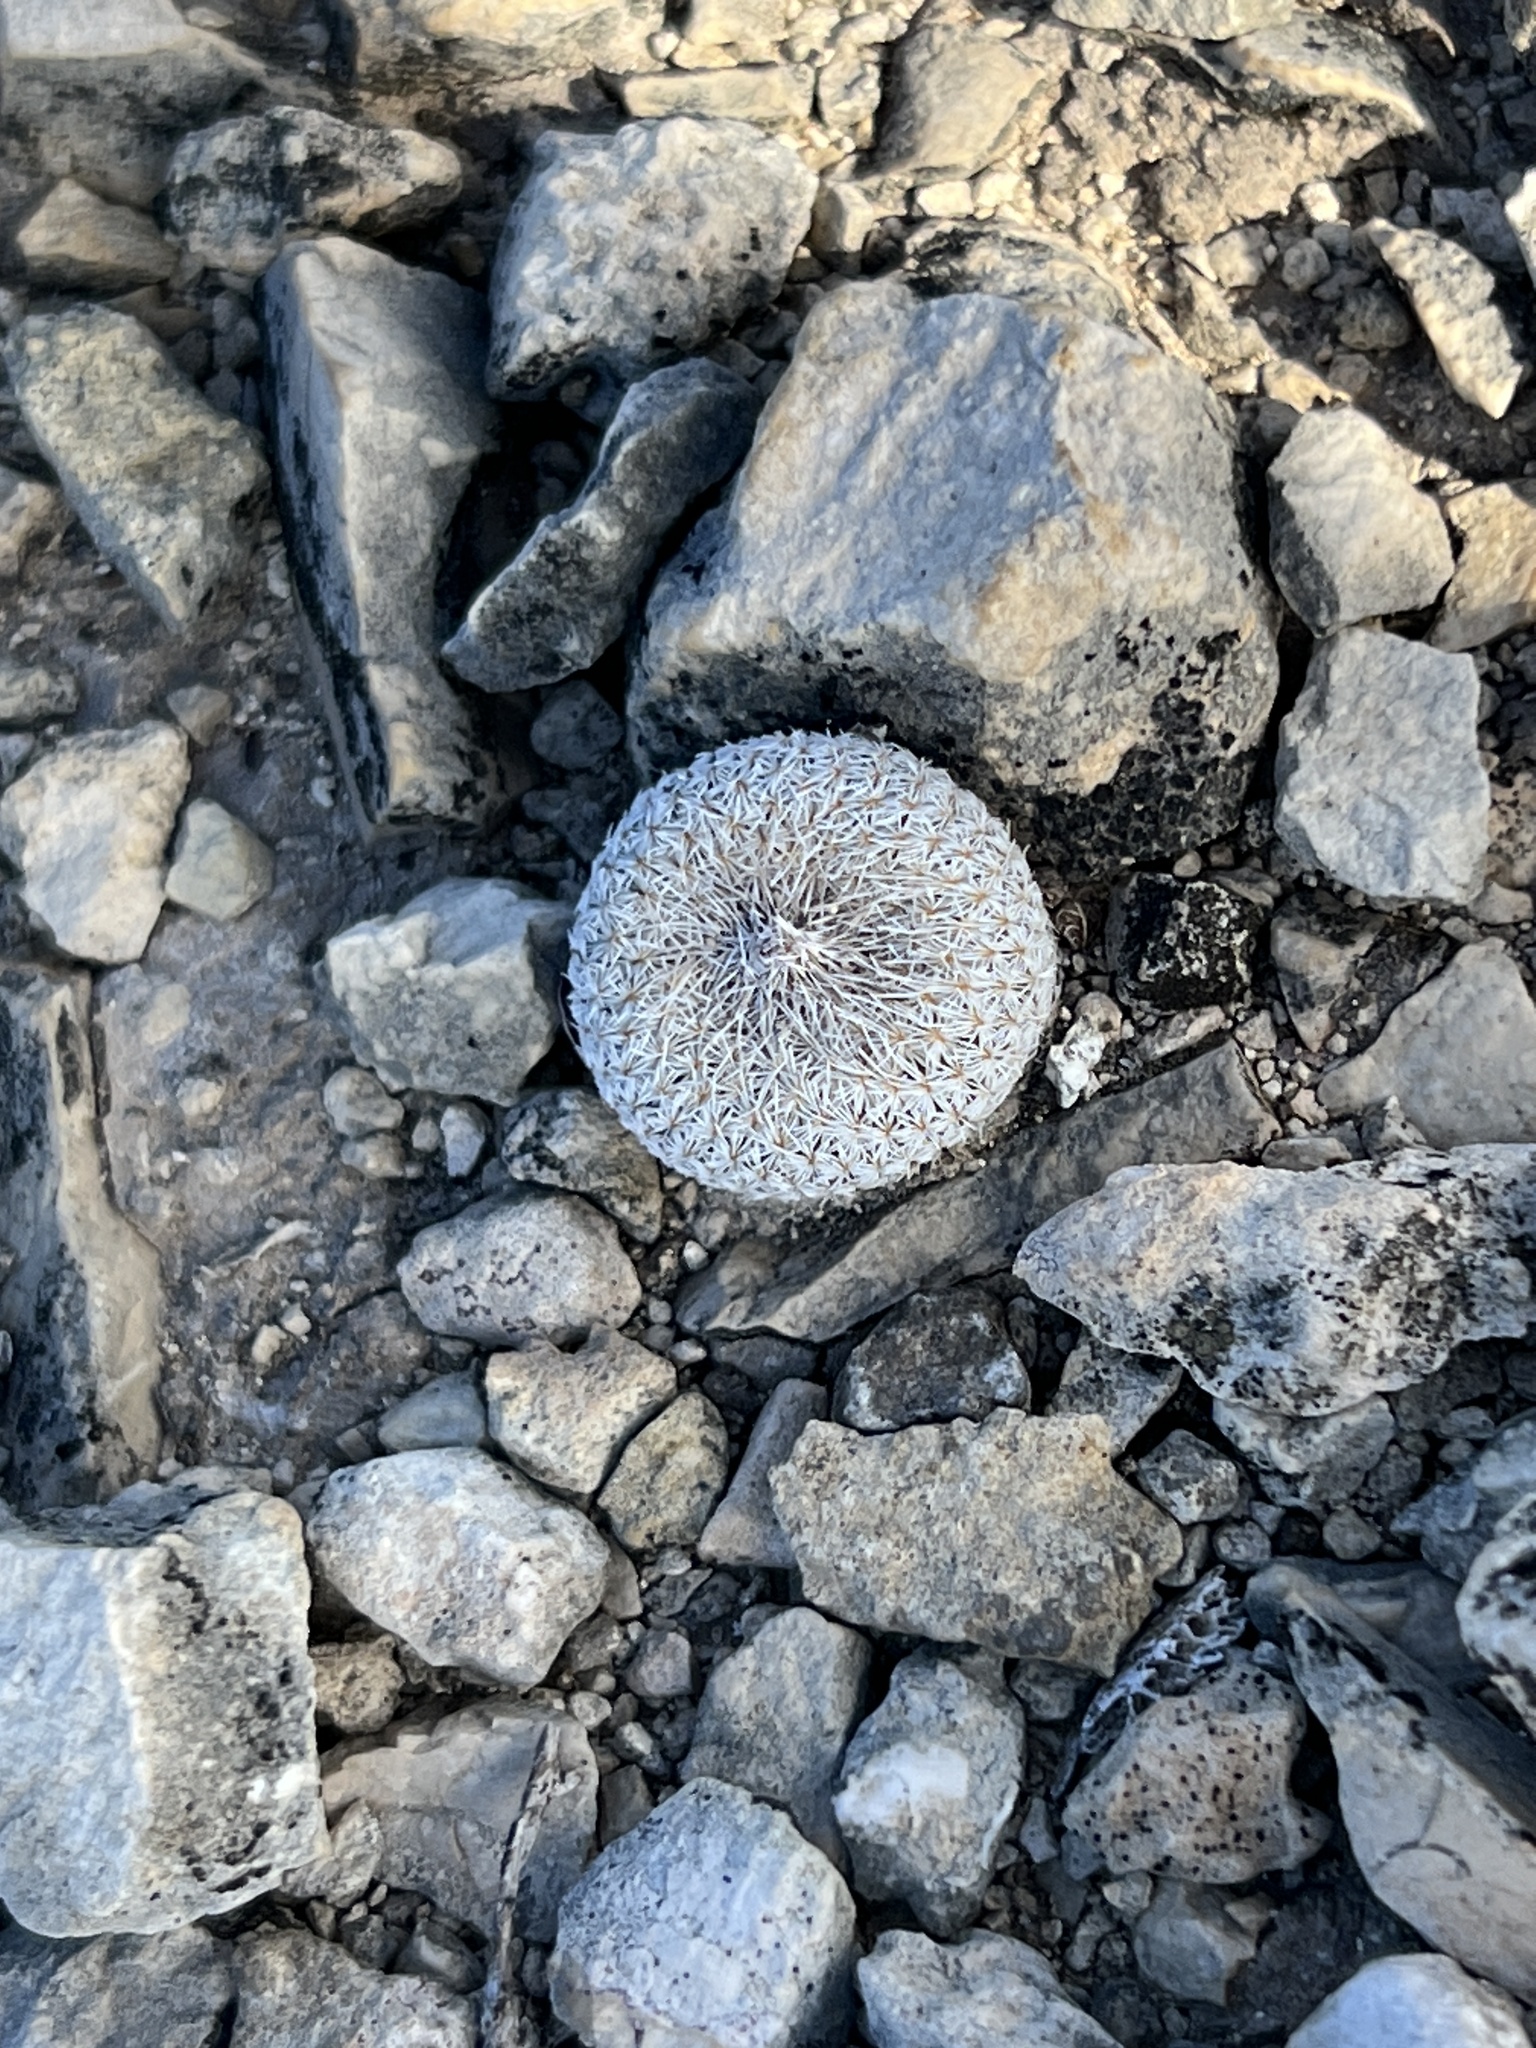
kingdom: Plantae
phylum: Tracheophyta
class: Magnoliopsida
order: Caryophyllales
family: Cactaceae
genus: Epithelantha
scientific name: Epithelantha micromeris
